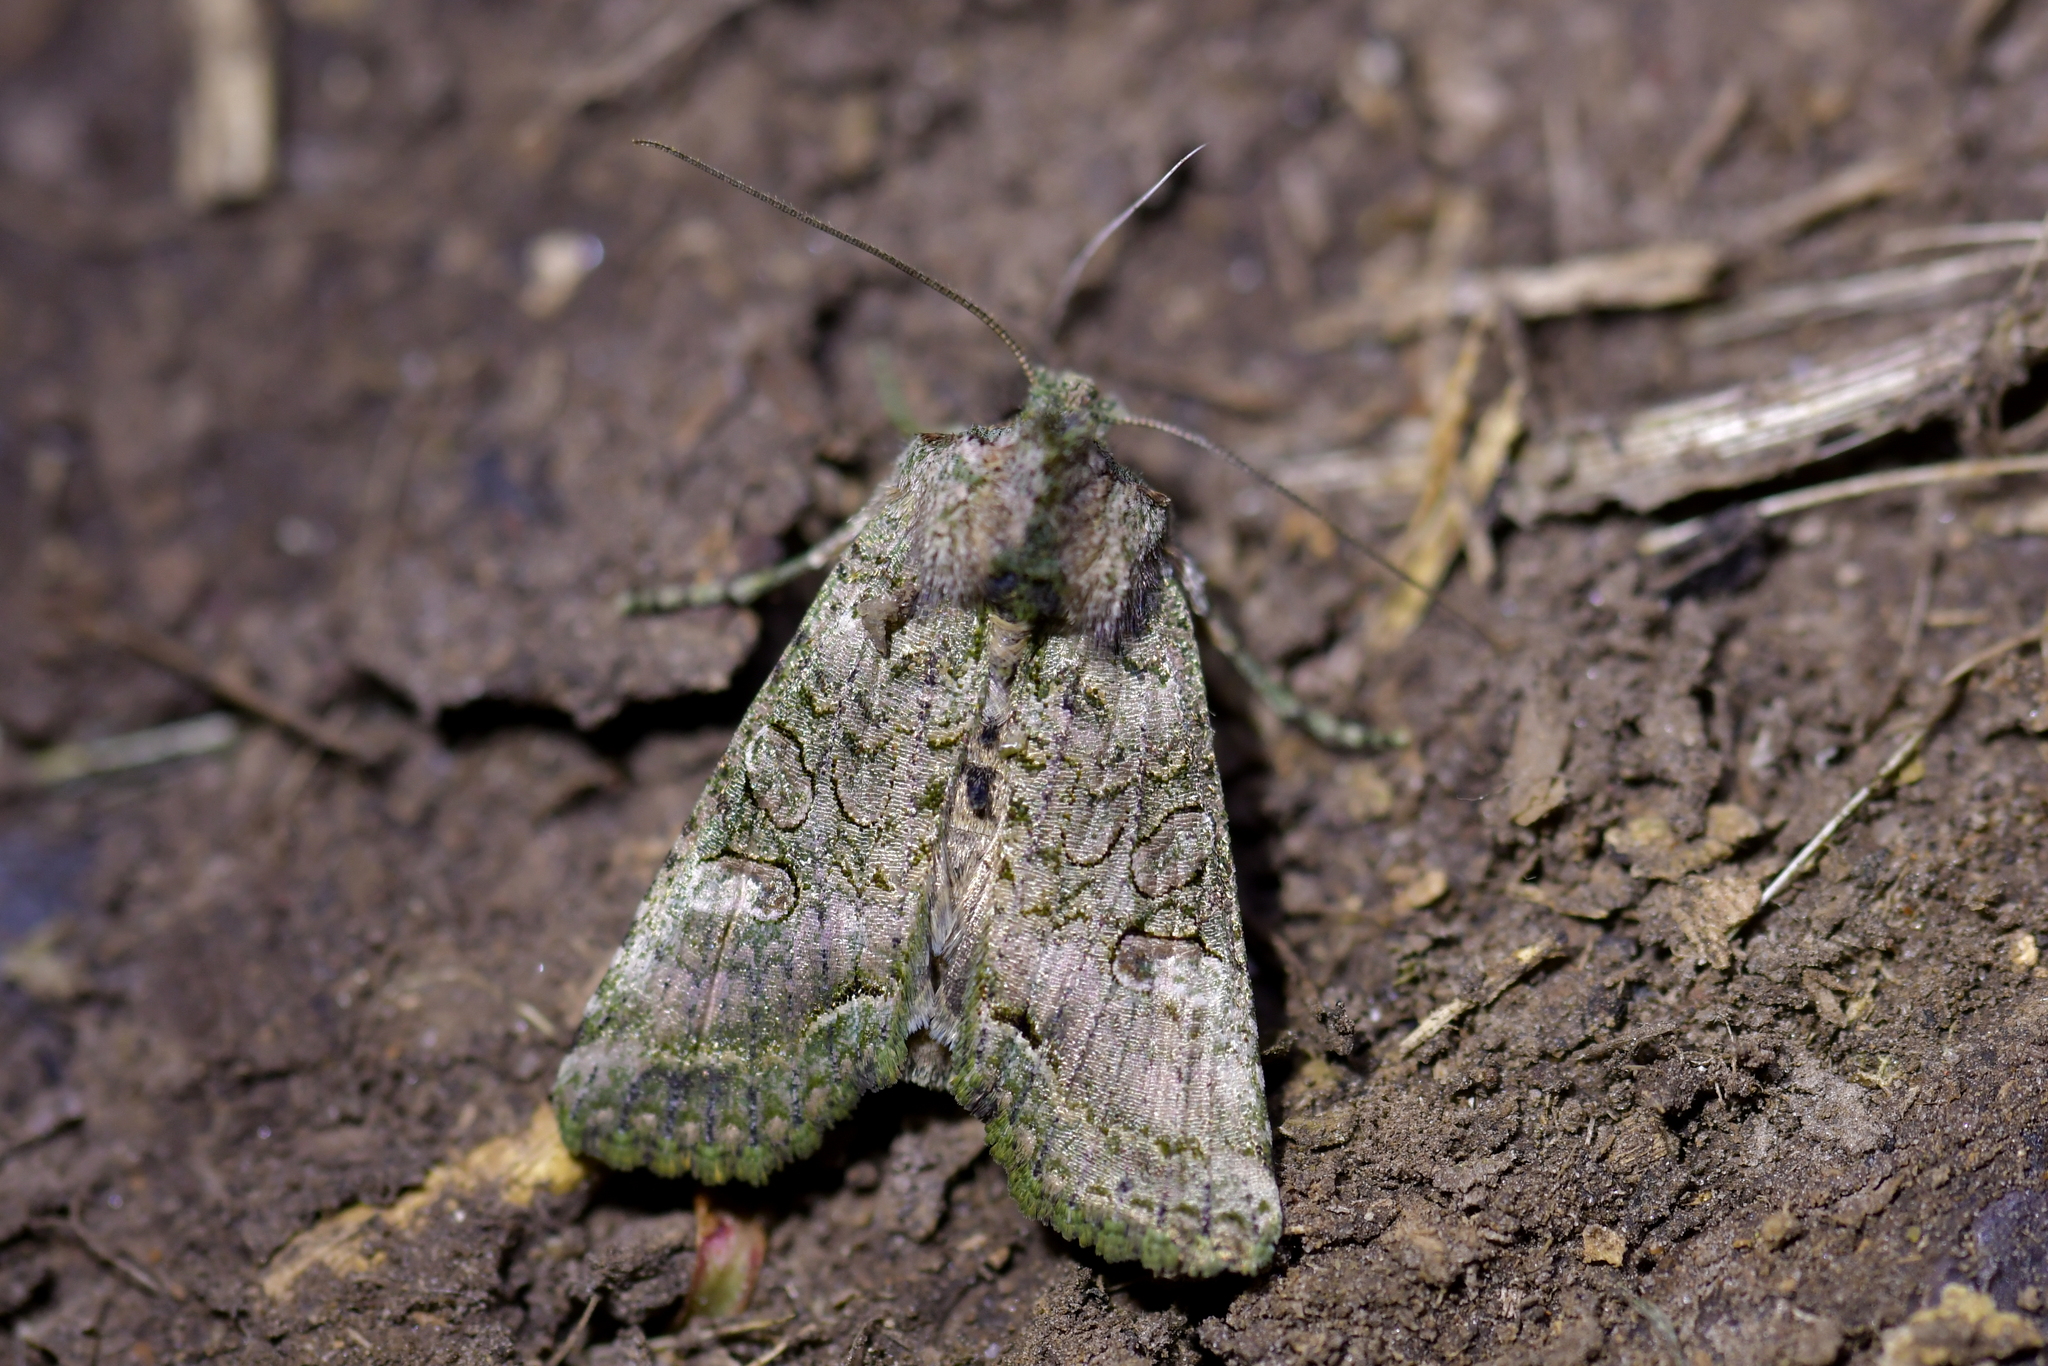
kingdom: Animalia
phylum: Arthropoda
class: Insecta
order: Lepidoptera
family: Noctuidae
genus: Meterana
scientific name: Meterana levis
